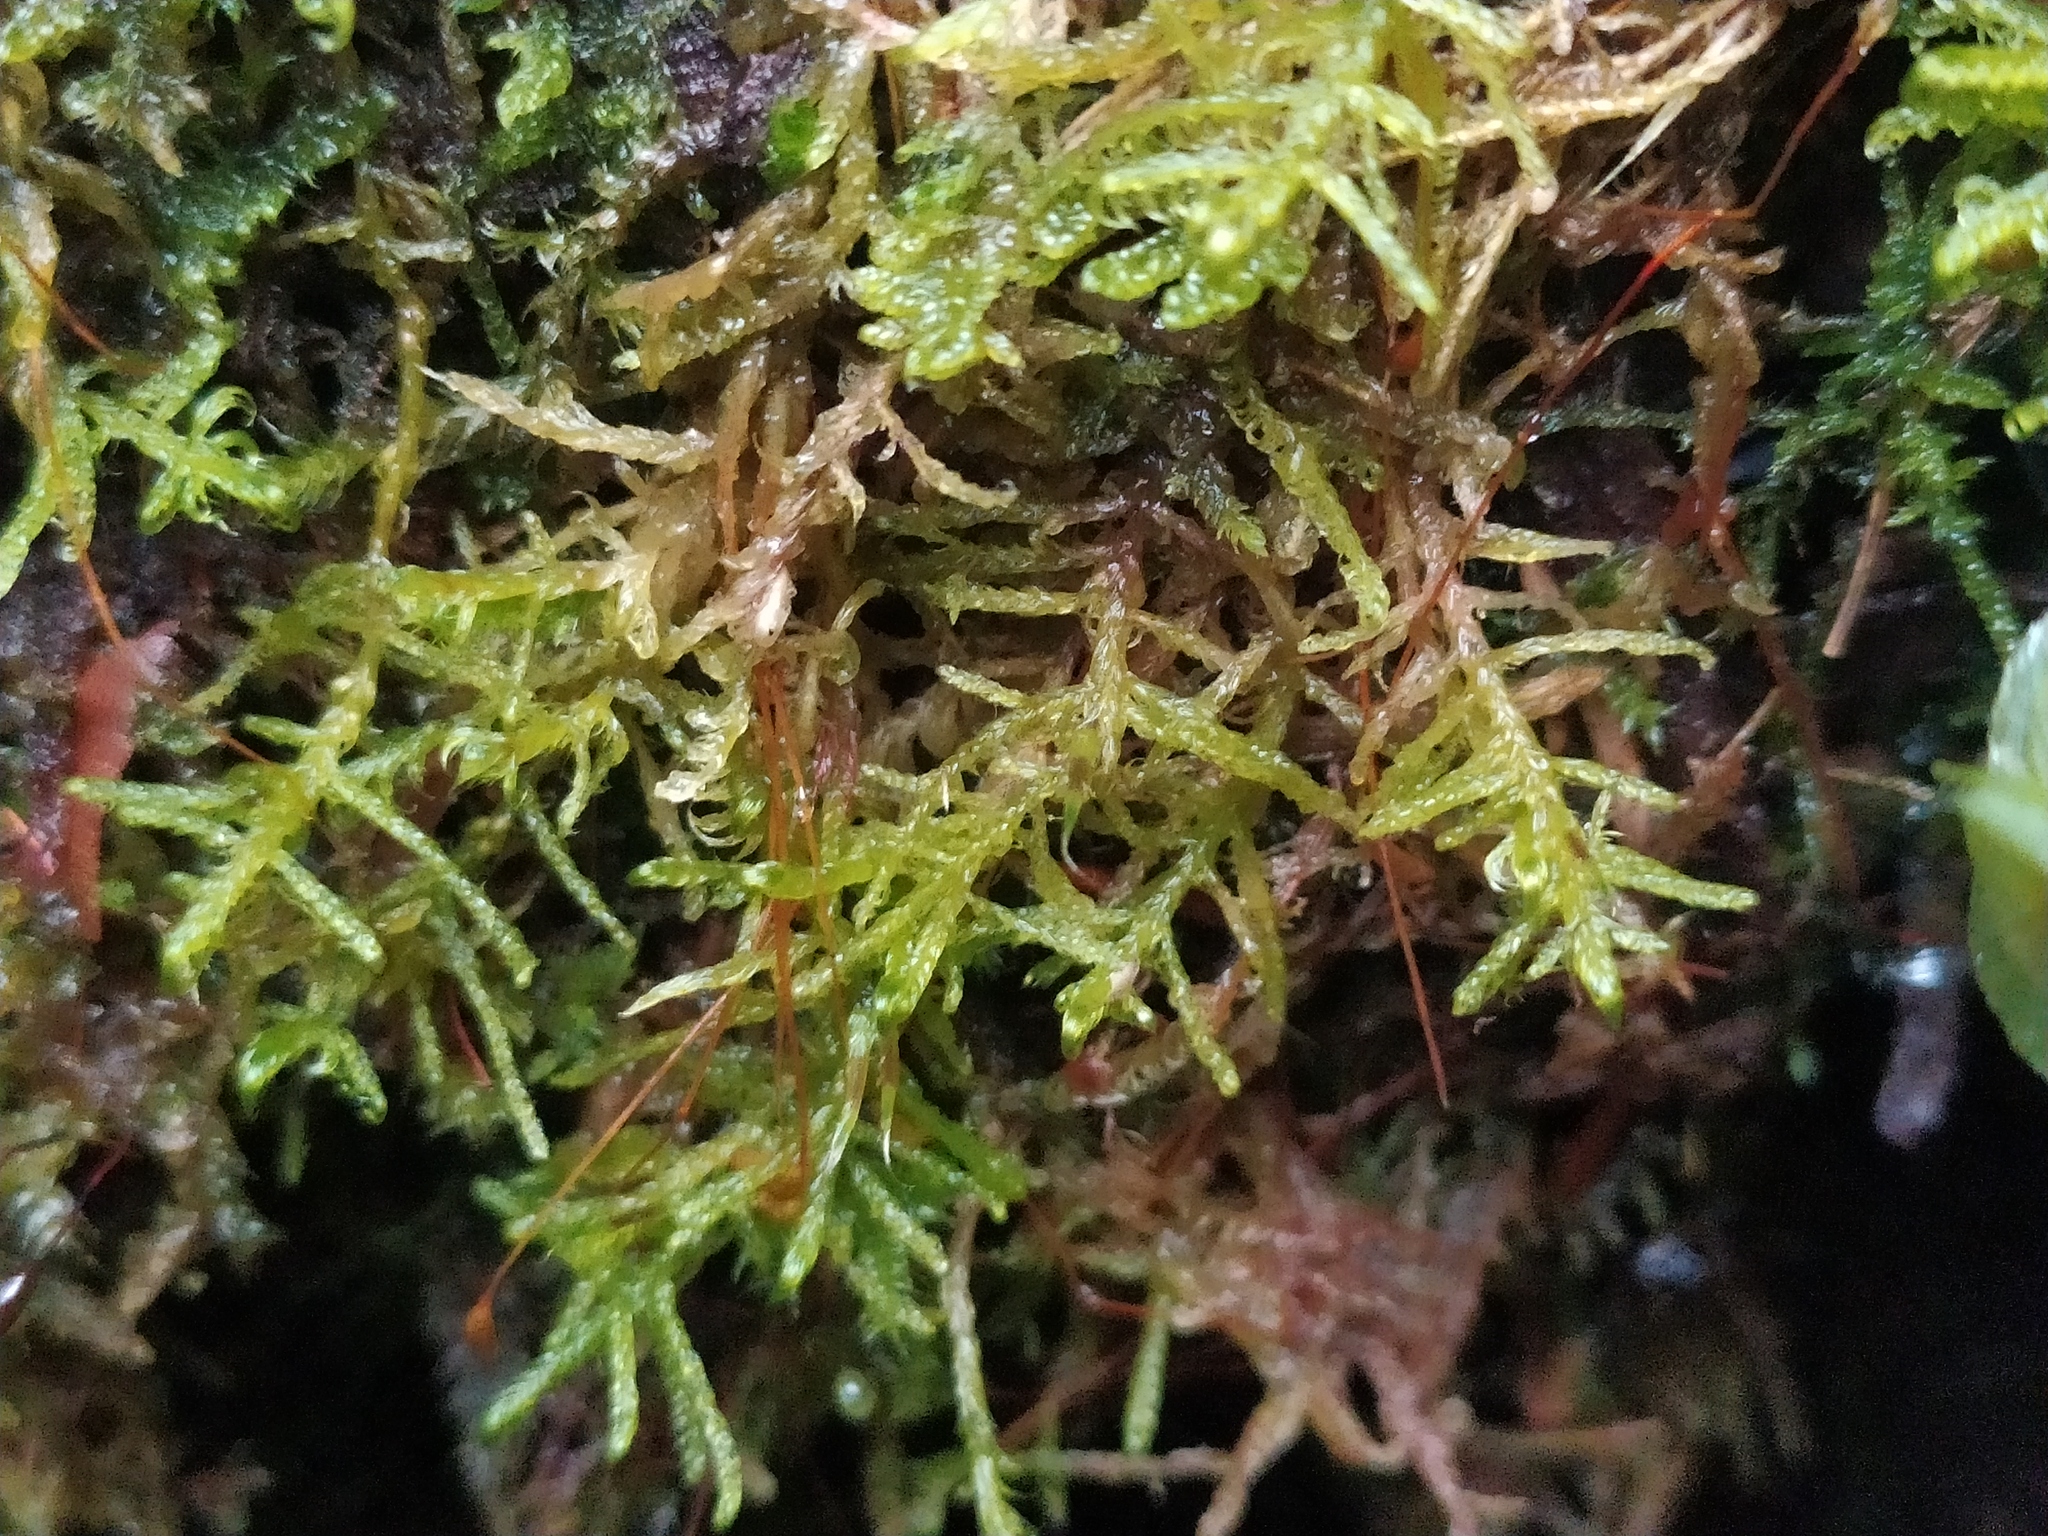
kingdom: Plantae
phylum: Bryophyta
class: Bryopsida
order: Hypnales
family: Scorpidiaceae
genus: Sanionia
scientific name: Sanionia uncinata
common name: Sickle moss
